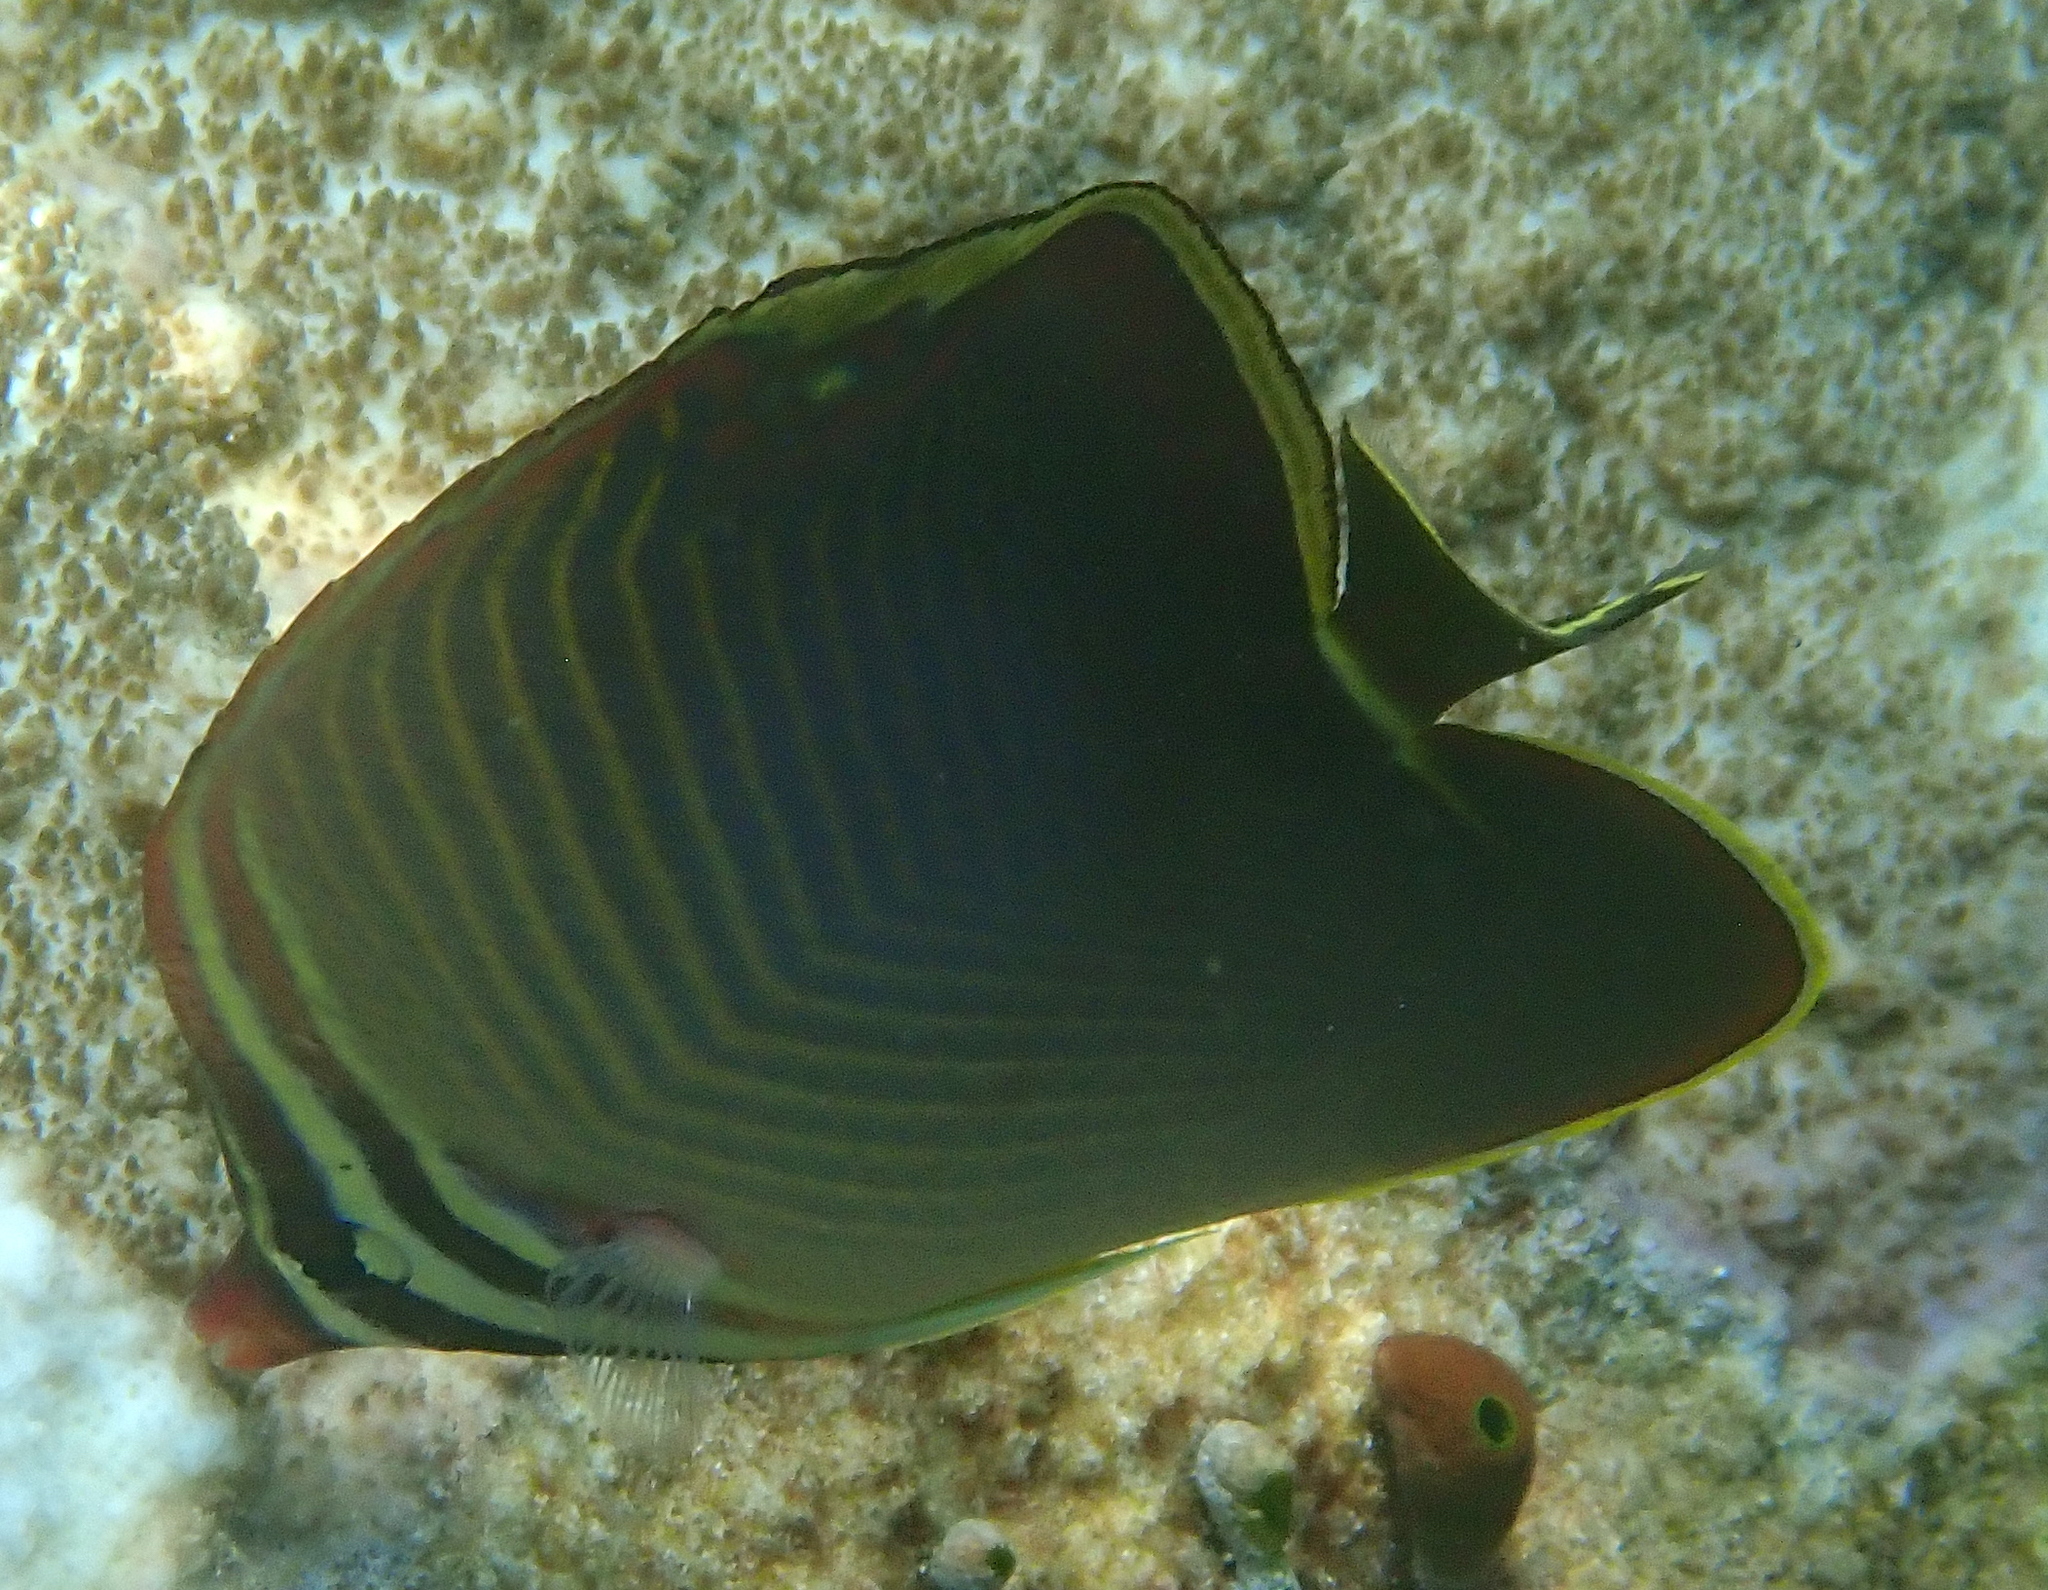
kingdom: Animalia
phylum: Chordata
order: Perciformes
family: Chaetodontidae
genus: Chaetodon
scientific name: Chaetodon baronessa
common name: Triangular butterflyfish
